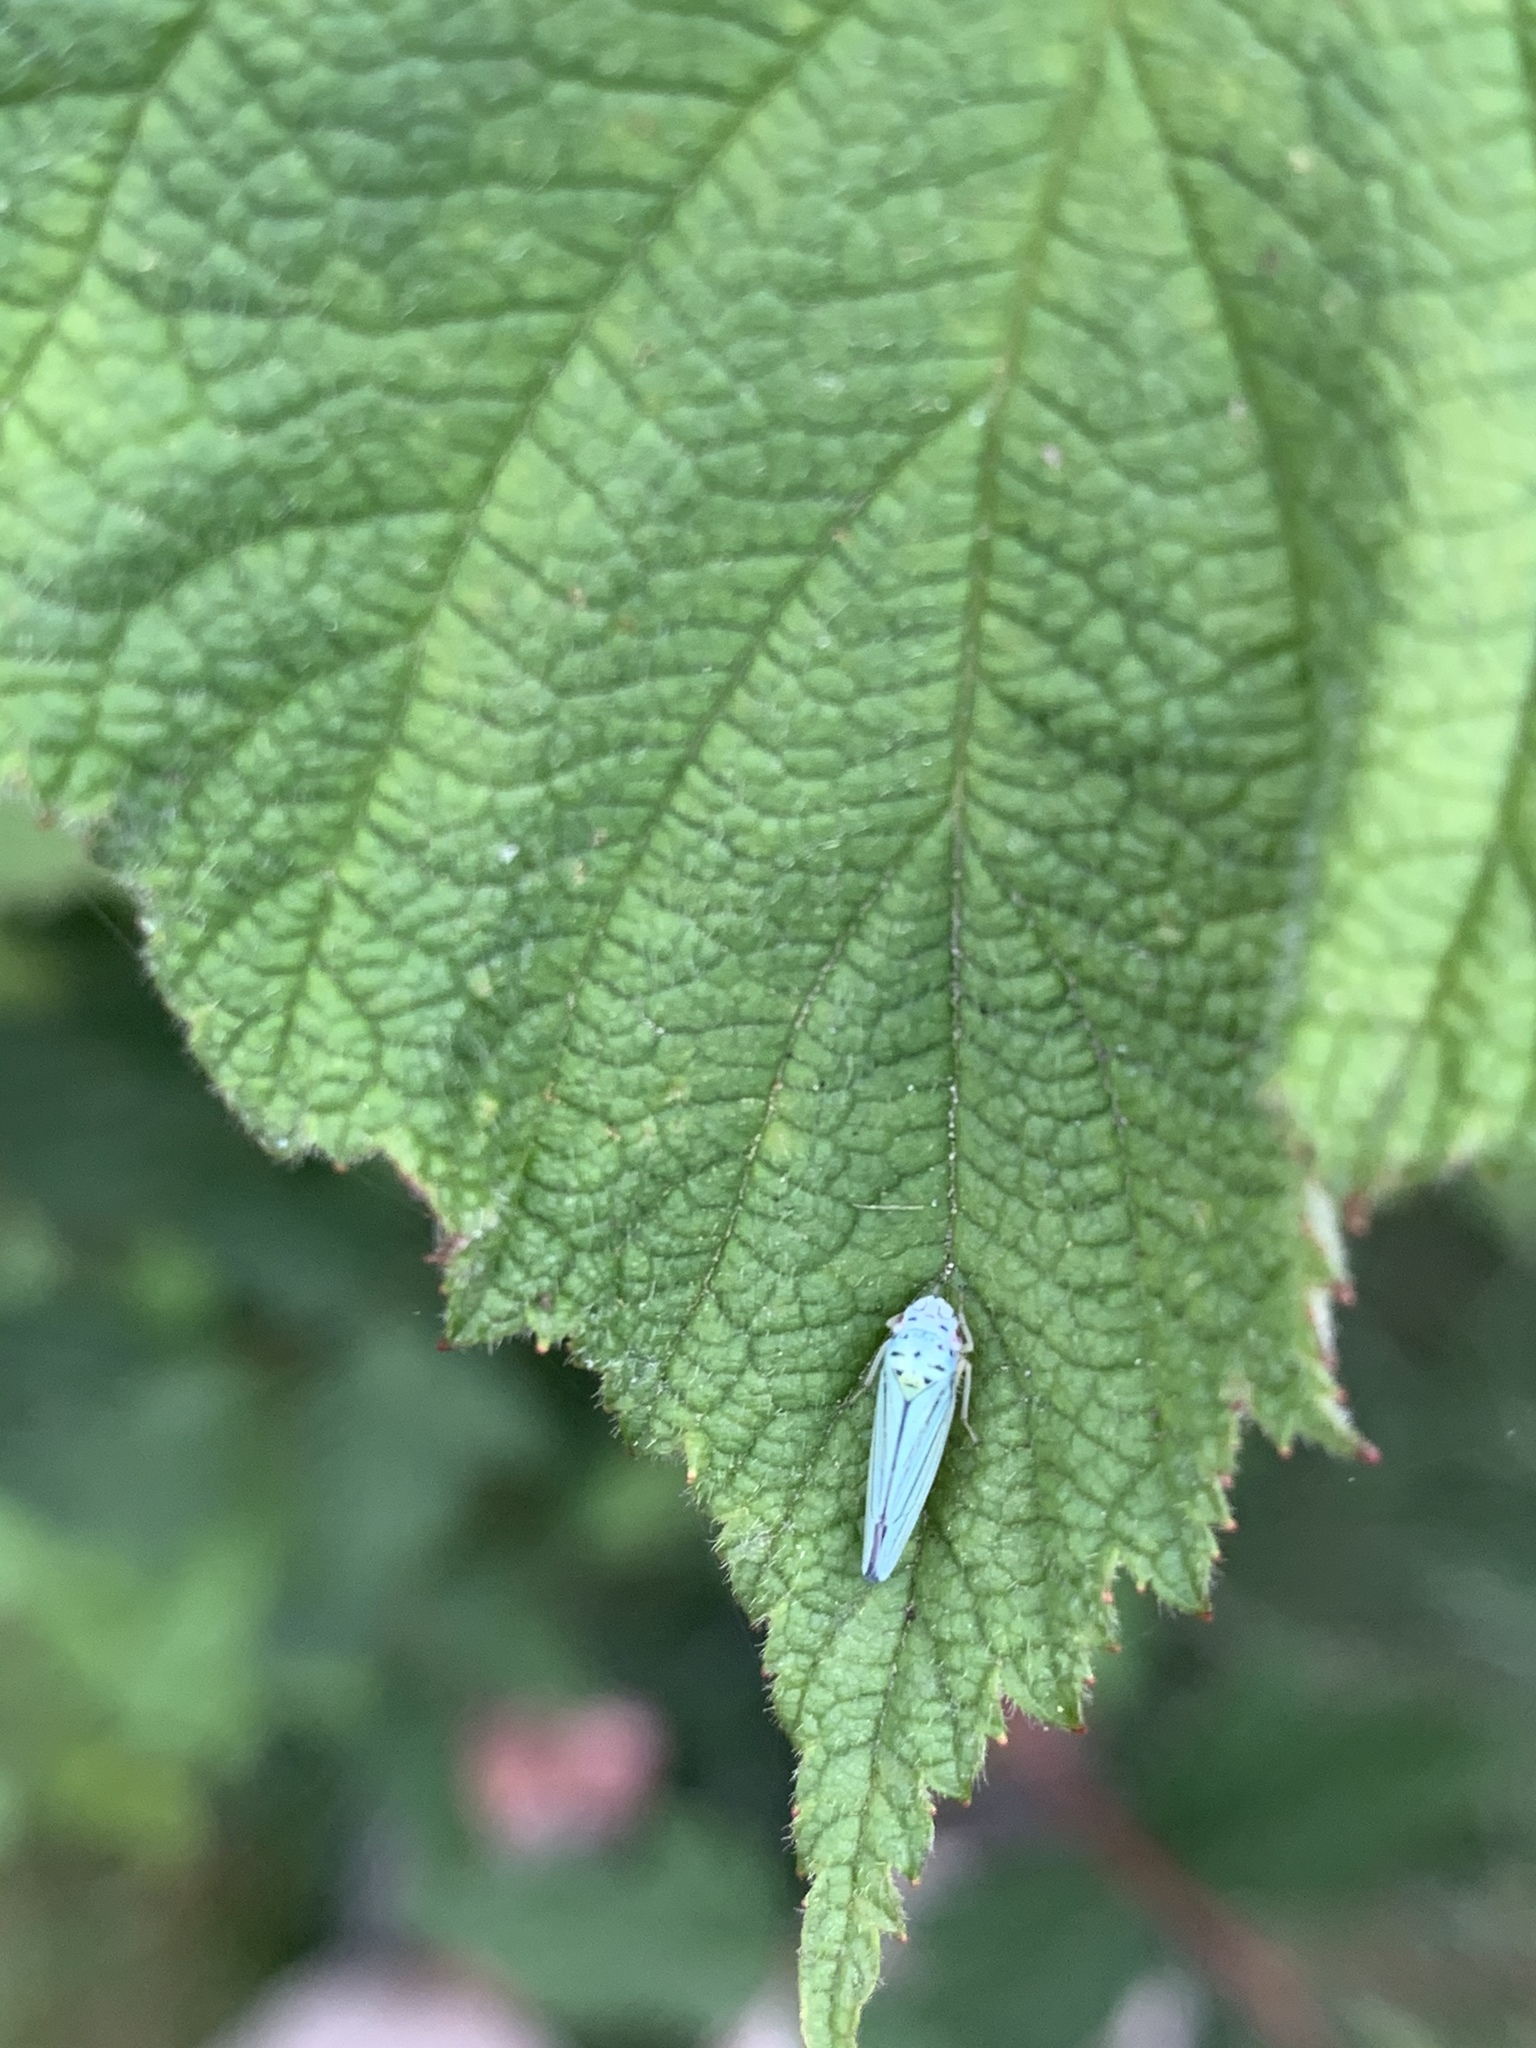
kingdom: Animalia
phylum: Arthropoda
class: Insecta
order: Hemiptera
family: Cicadellidae
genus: Graphocephala
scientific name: Graphocephala atropunctata
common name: Blue-green sharpshooter
